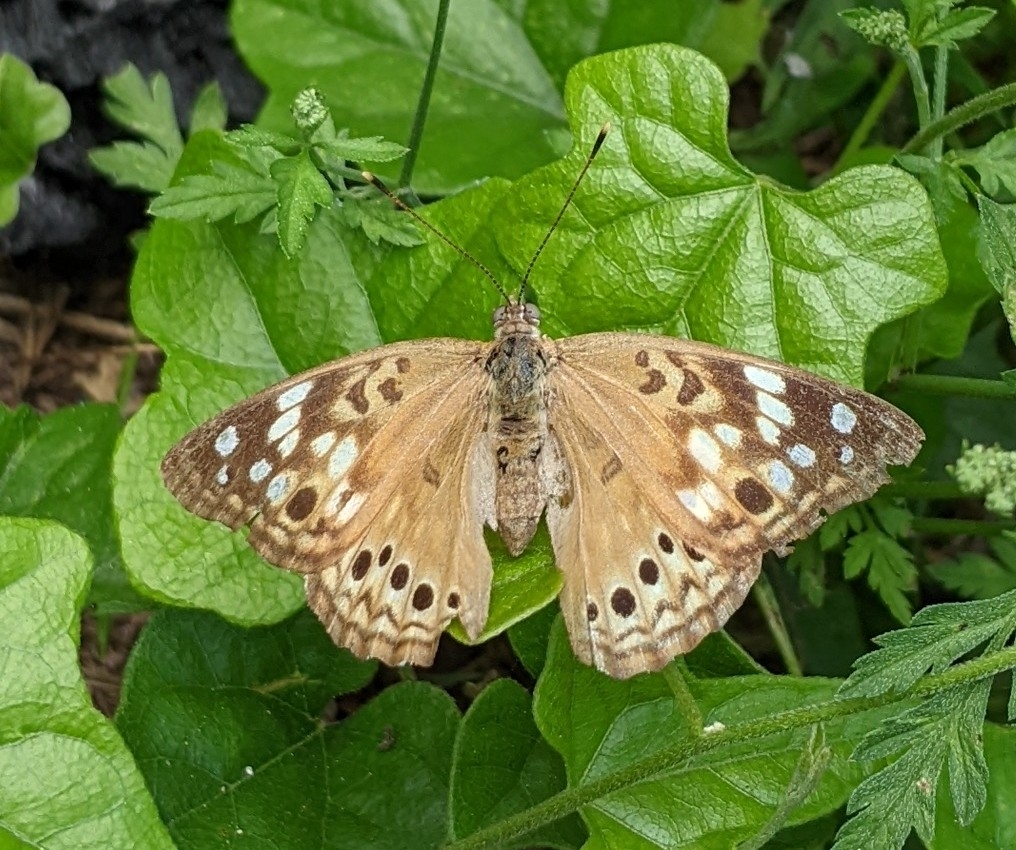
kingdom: Animalia
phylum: Arthropoda
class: Insecta
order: Lepidoptera
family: Nymphalidae
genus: Asterocampa
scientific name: Asterocampa celtis
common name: Hackberry emperor
